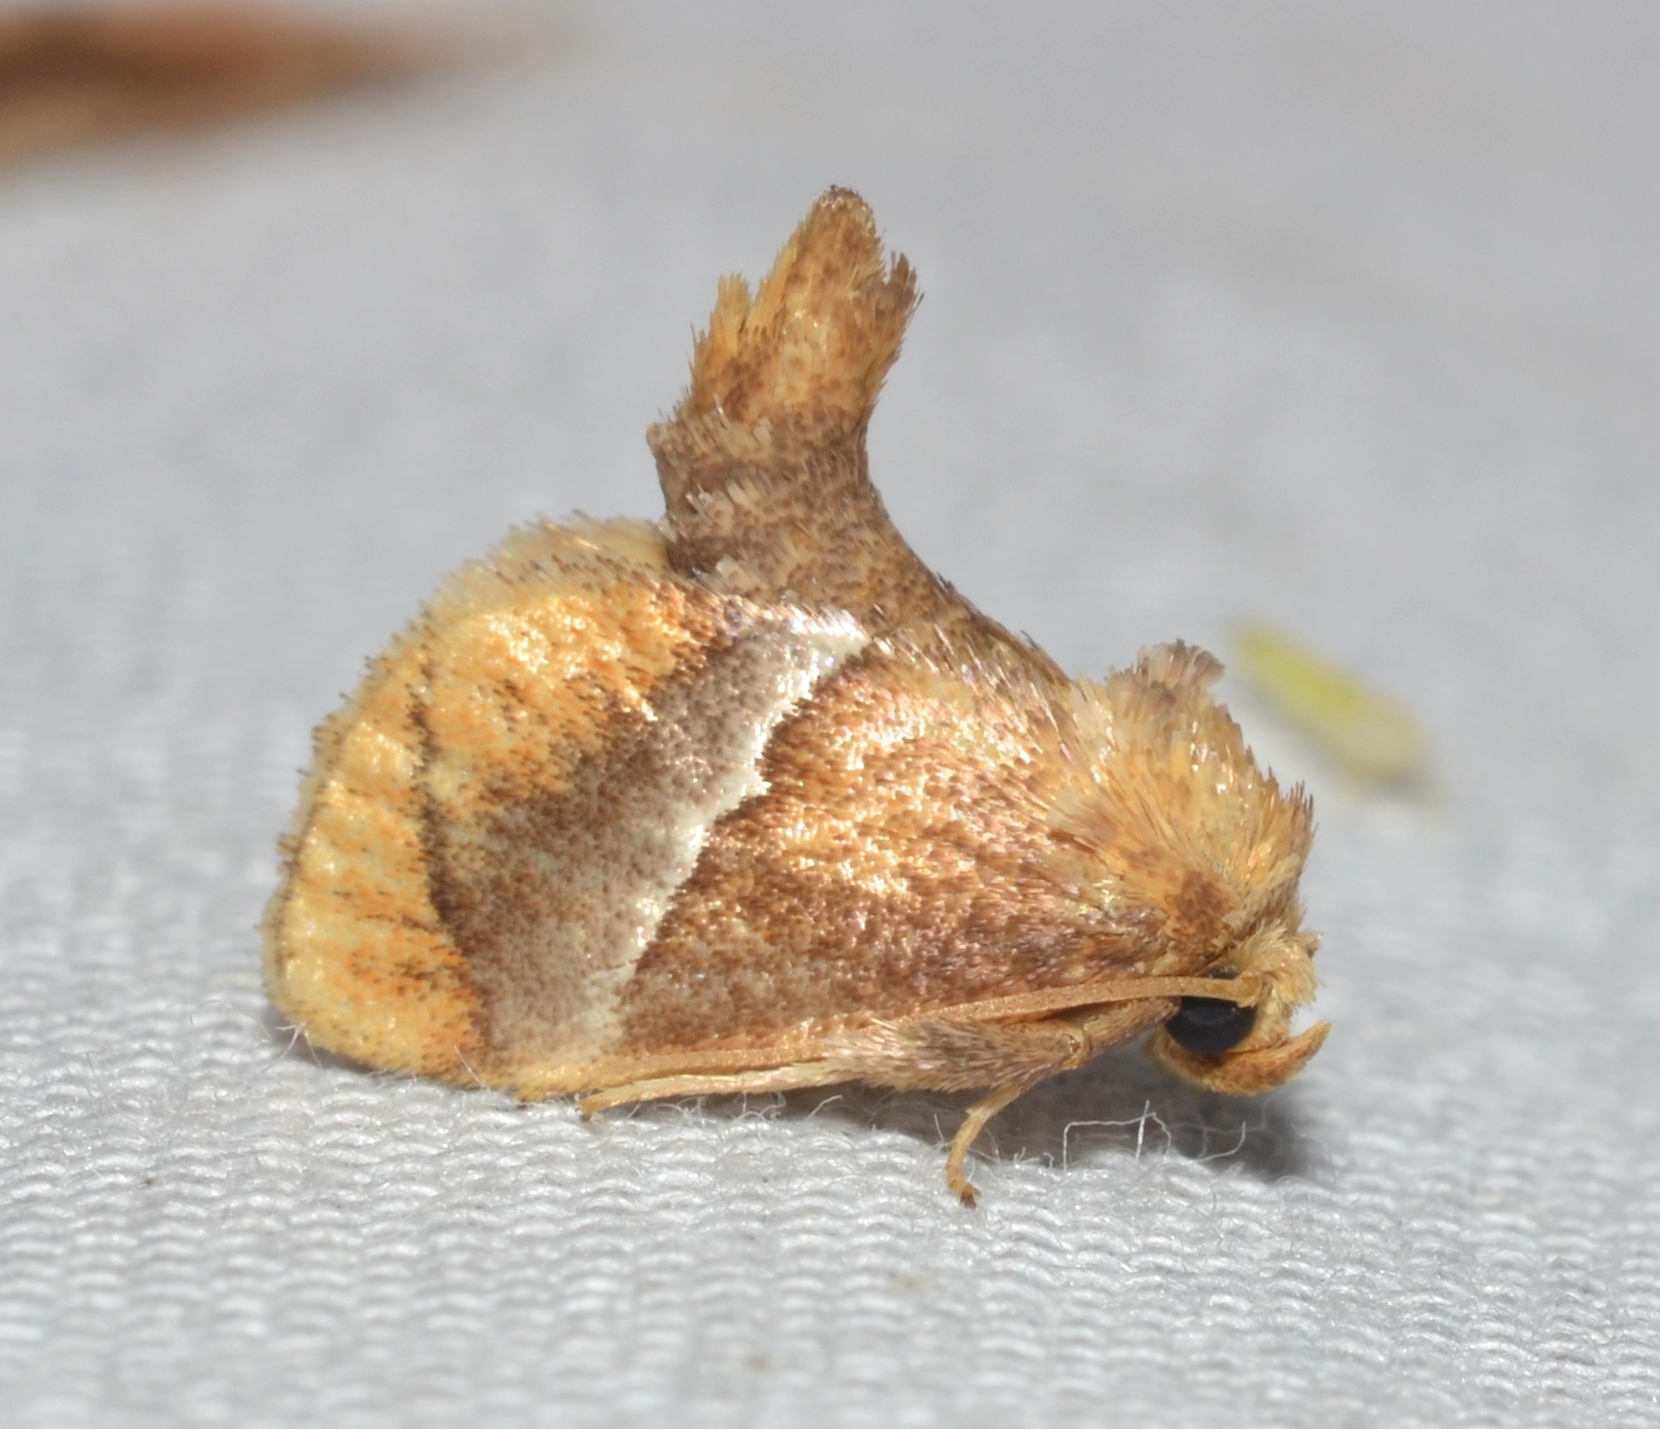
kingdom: Animalia
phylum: Arthropoda
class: Insecta
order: Lepidoptera
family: Limacodidae
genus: Lithacodes
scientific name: Lithacodes fasciola
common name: Yellow-shouldered slug moth
